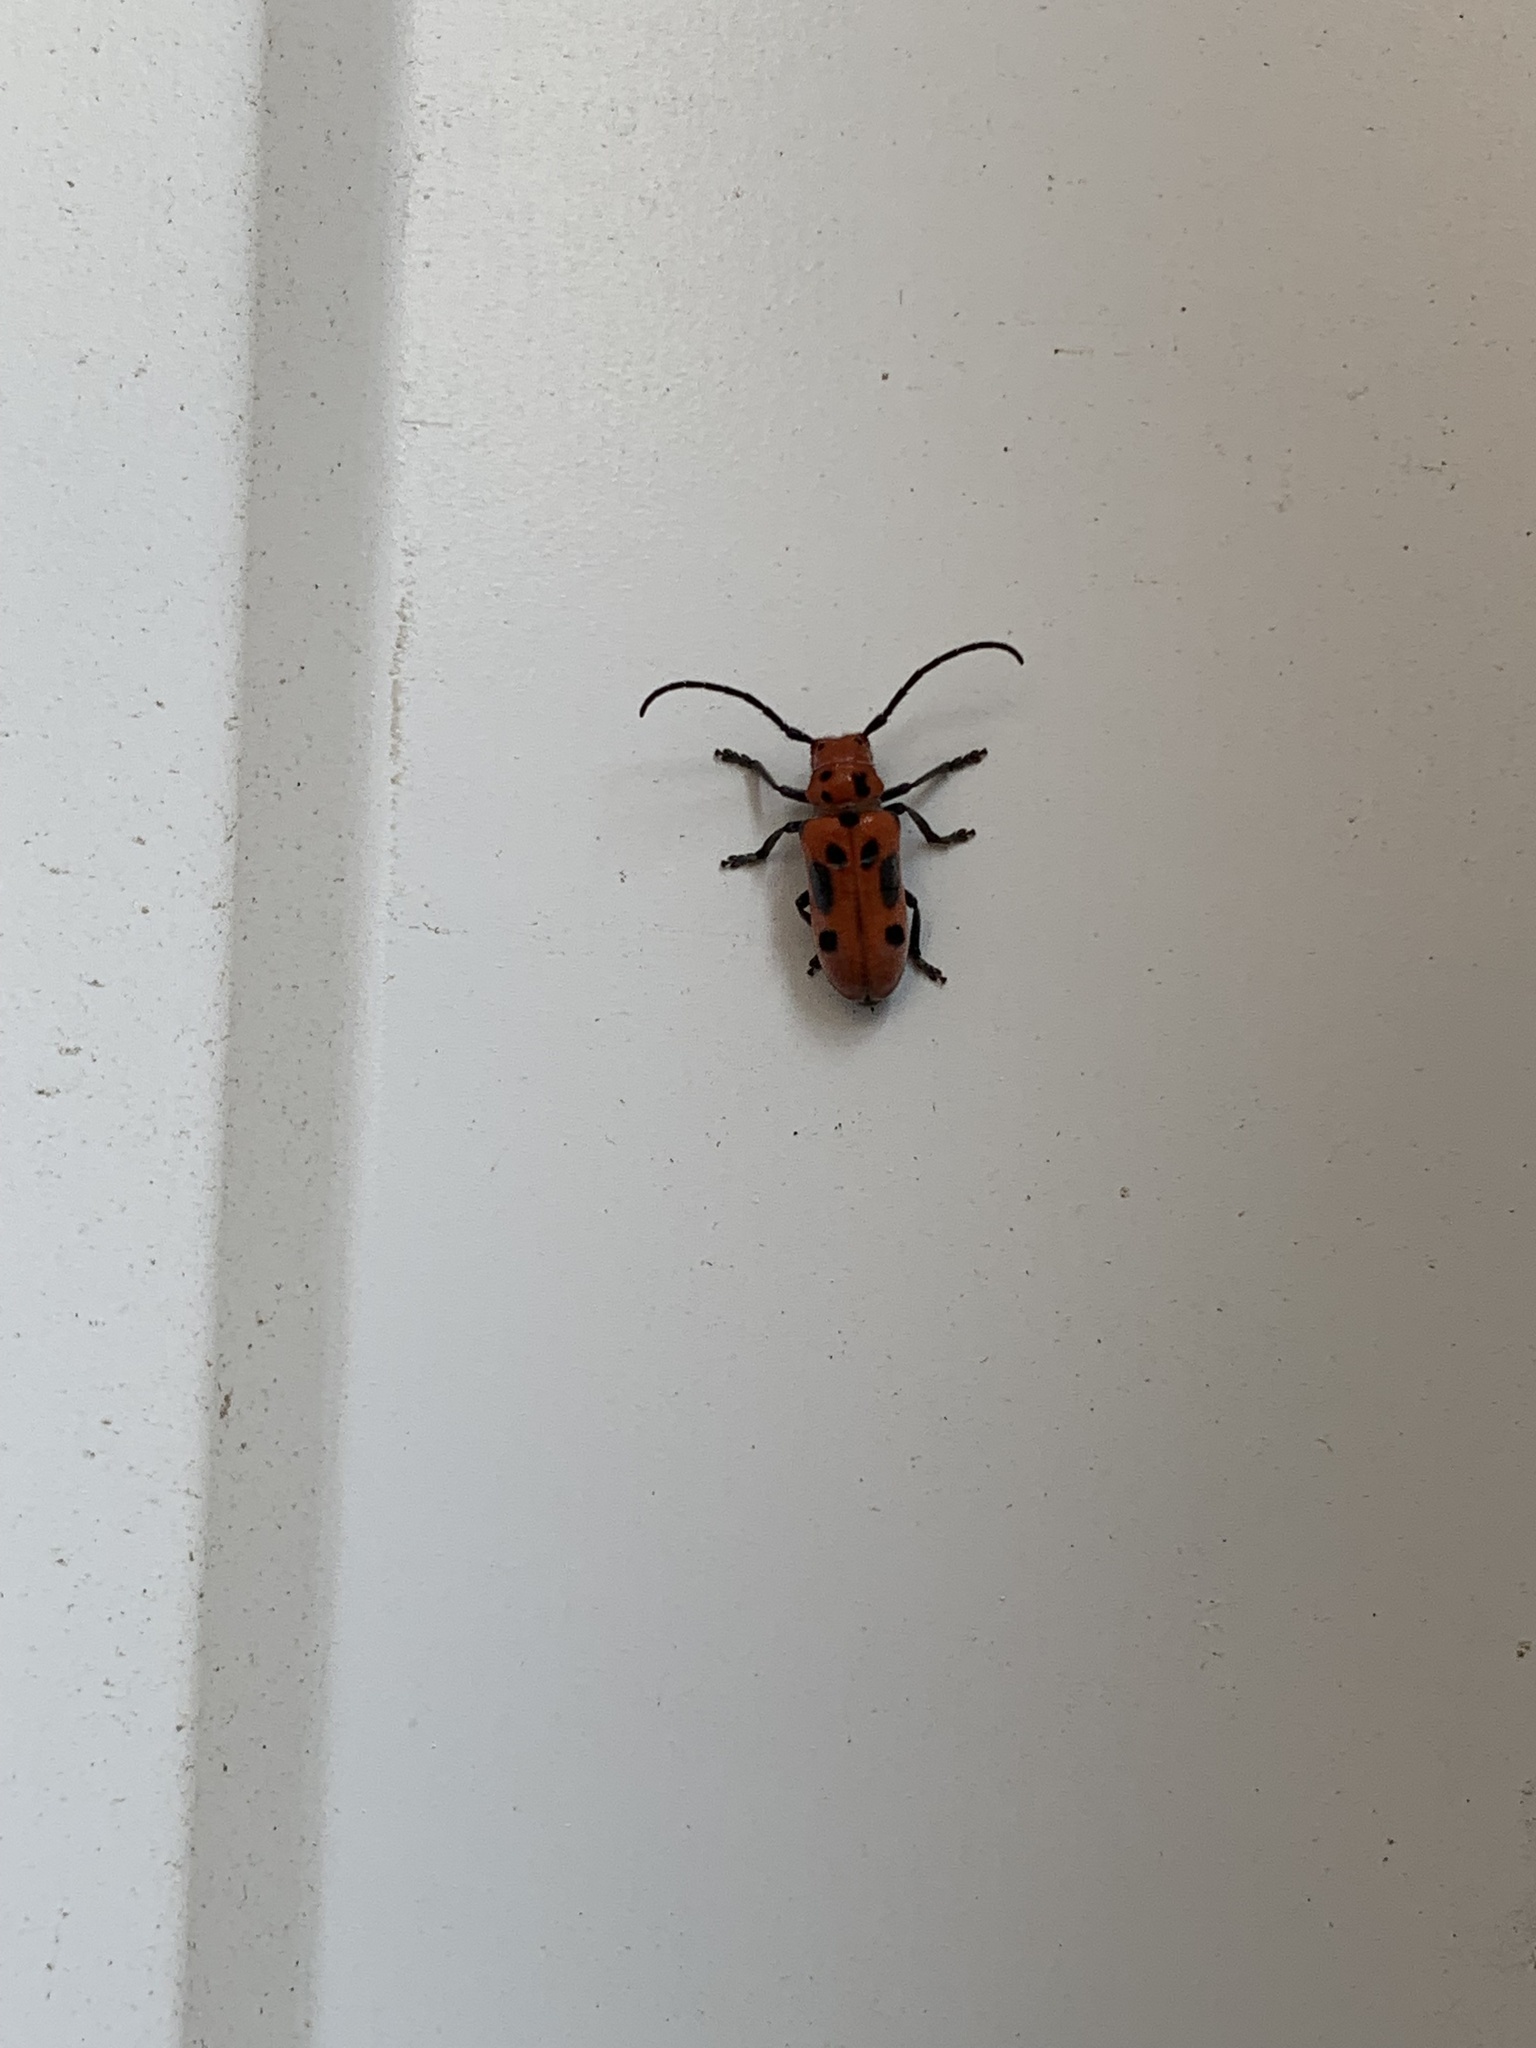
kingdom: Animalia
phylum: Arthropoda
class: Insecta
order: Coleoptera
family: Cerambycidae
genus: Tetraopes
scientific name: Tetraopes tetrophthalmus
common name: Red milkweed beetle
